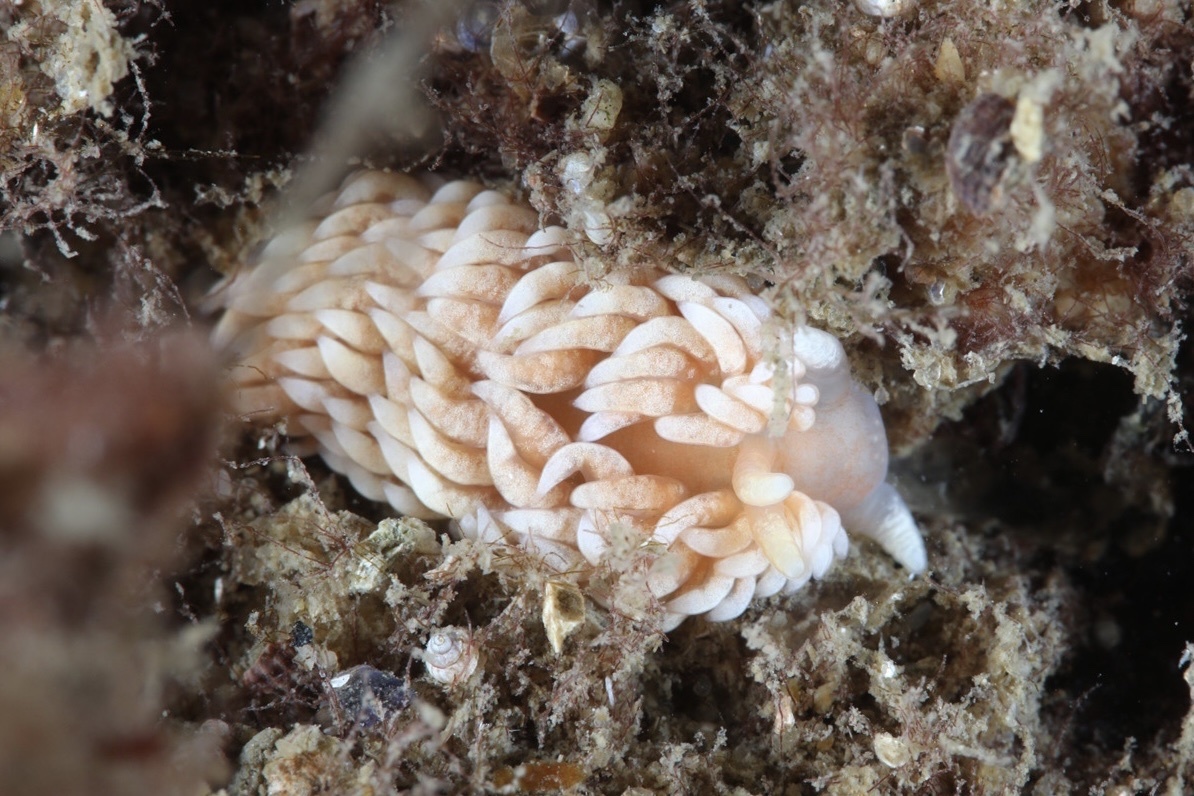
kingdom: Animalia
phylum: Mollusca
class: Gastropoda
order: Nudibranchia
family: Aeolidiidae
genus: Aeolidiella
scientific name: Aeolidiella glauca
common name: Orange-brown aeolid
